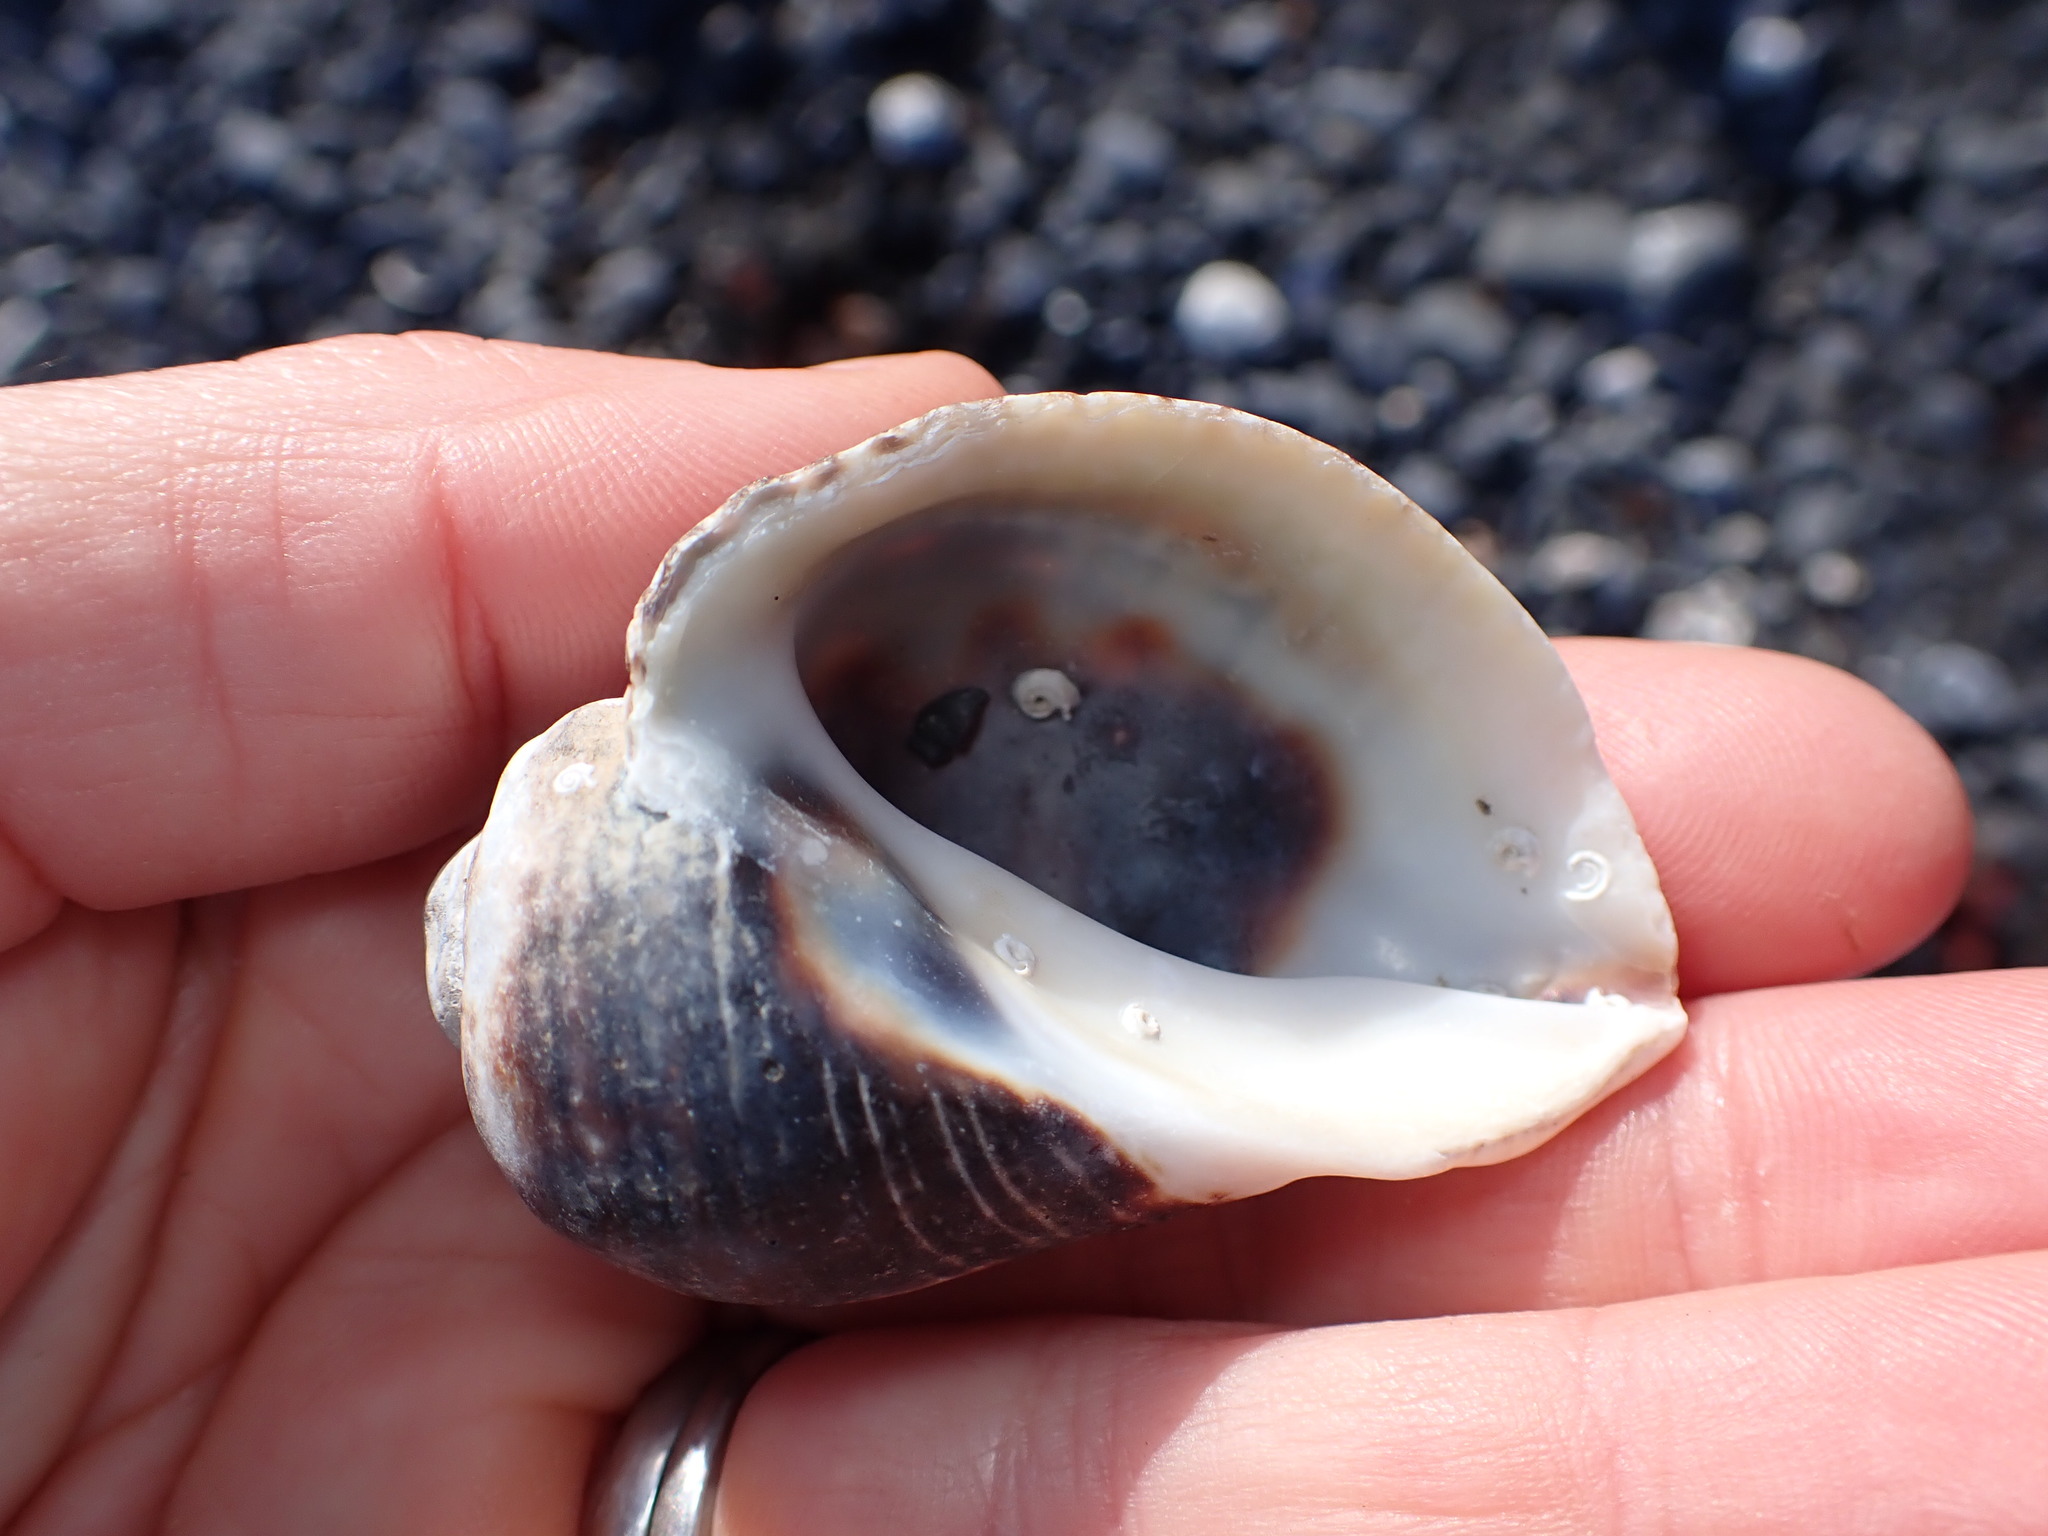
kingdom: Animalia
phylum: Mollusca
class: Gastropoda
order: Neogastropoda
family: Muricidae
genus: Haustrum
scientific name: Haustrum haustorium
